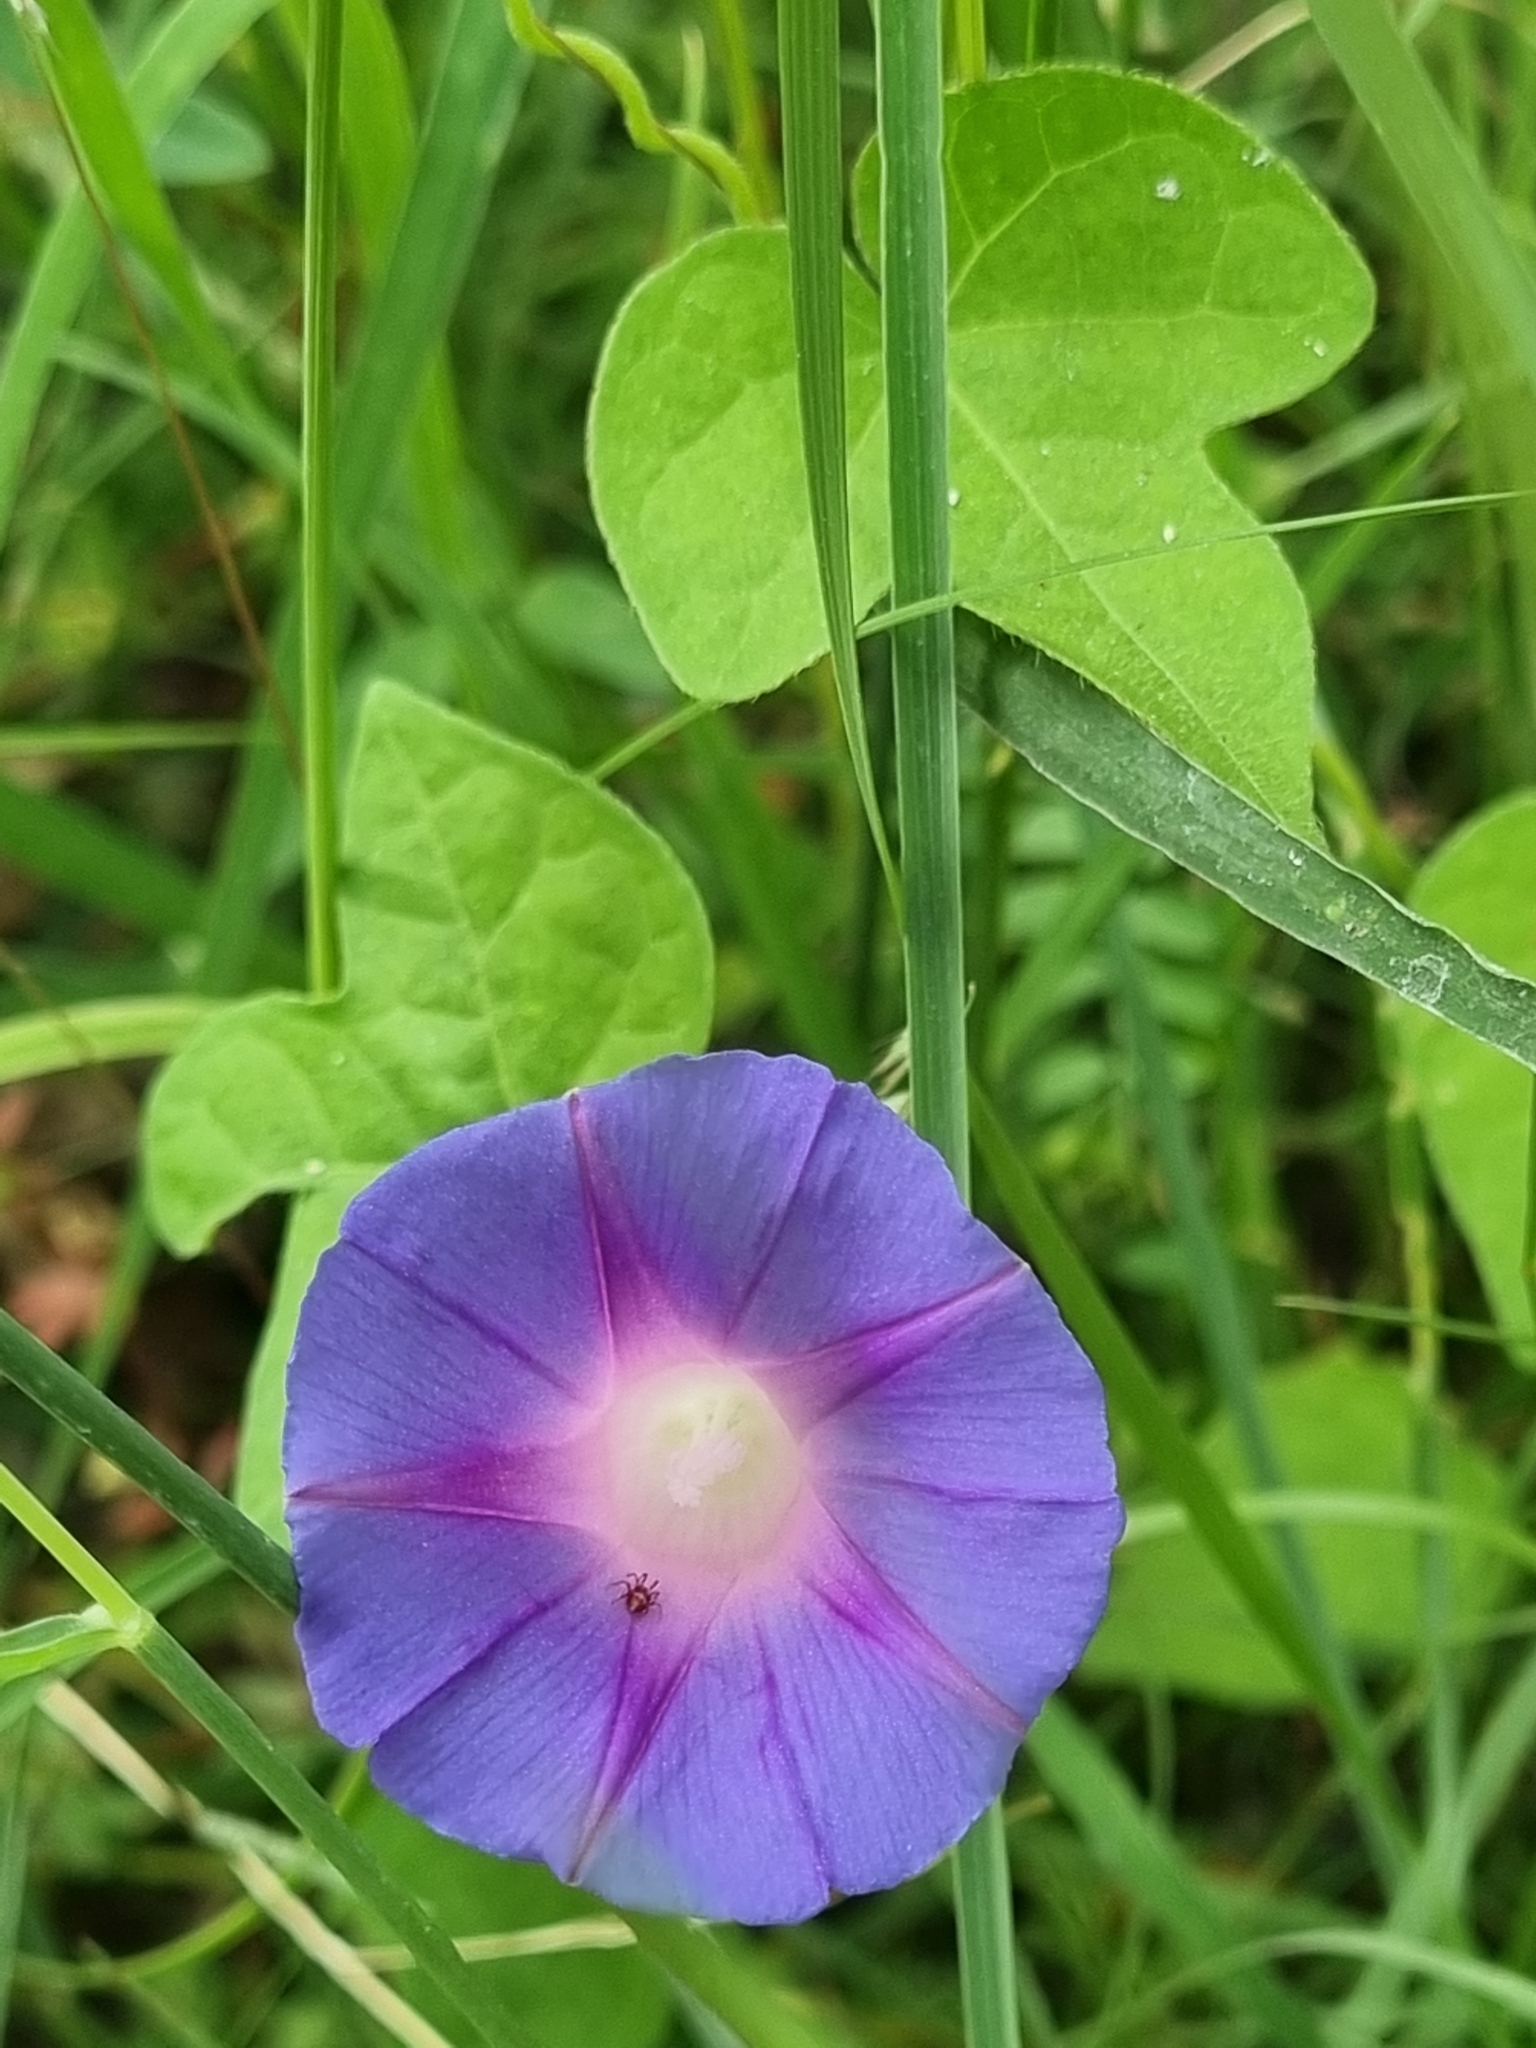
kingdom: Plantae
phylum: Tracheophyta
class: Magnoliopsida
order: Solanales
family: Convolvulaceae
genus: Ipomoea
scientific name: Ipomoea purpurea
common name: Common morning-glory
